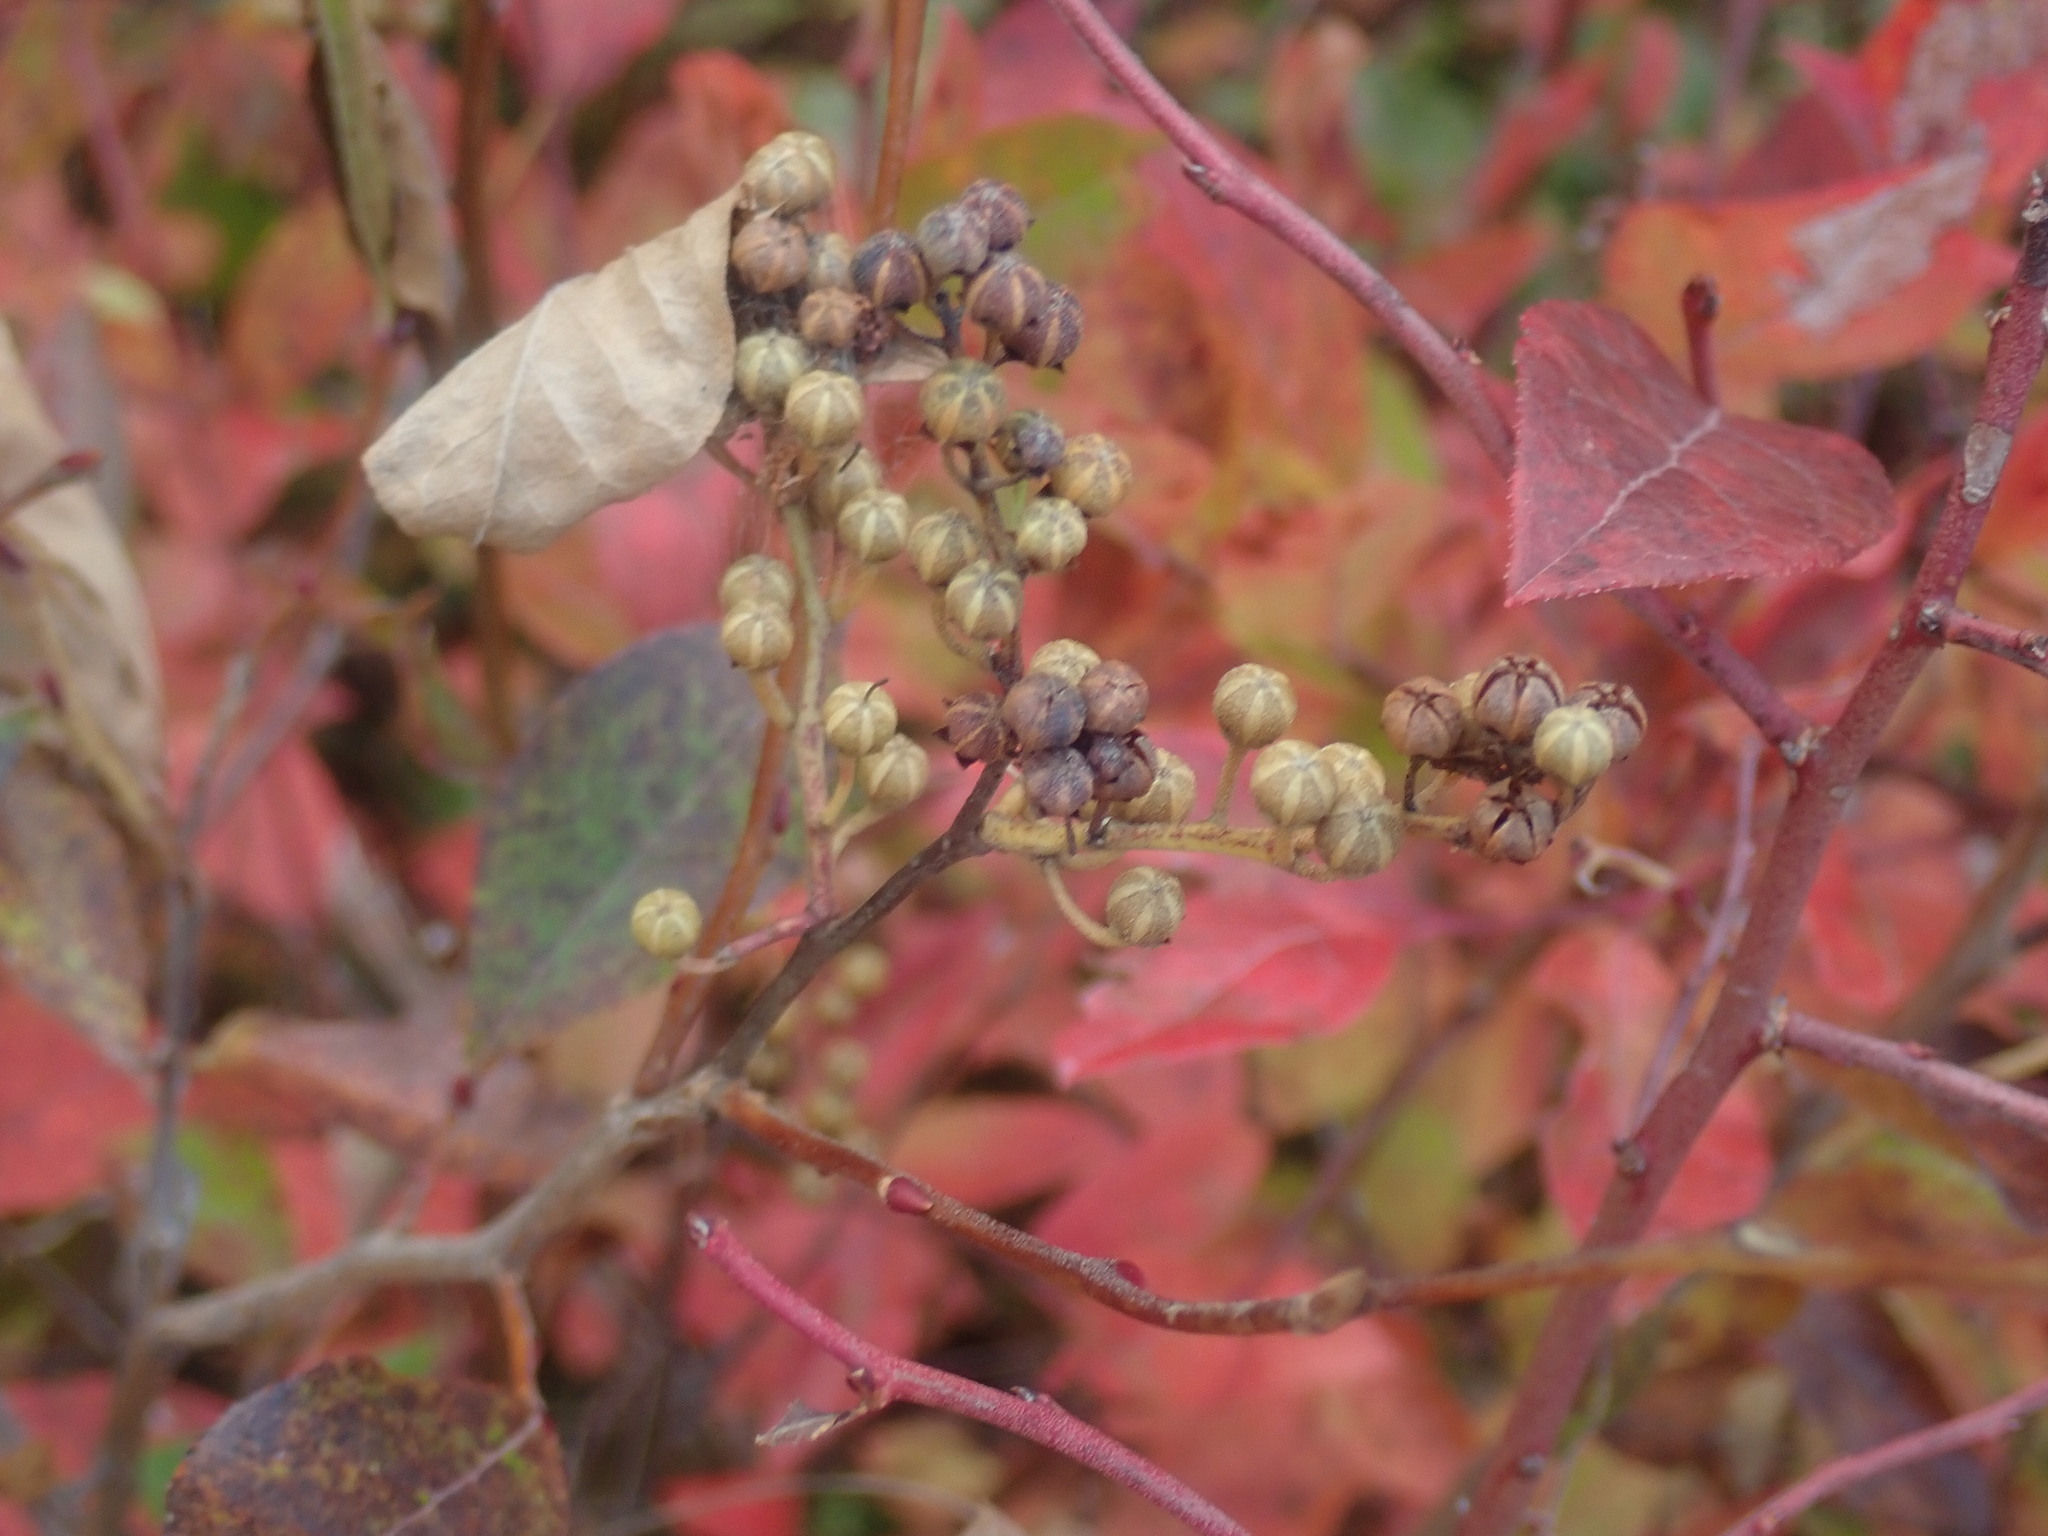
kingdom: Plantae
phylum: Tracheophyta
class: Magnoliopsida
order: Ericales
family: Ericaceae
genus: Lyonia
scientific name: Lyonia ligustrina
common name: Maleberry
